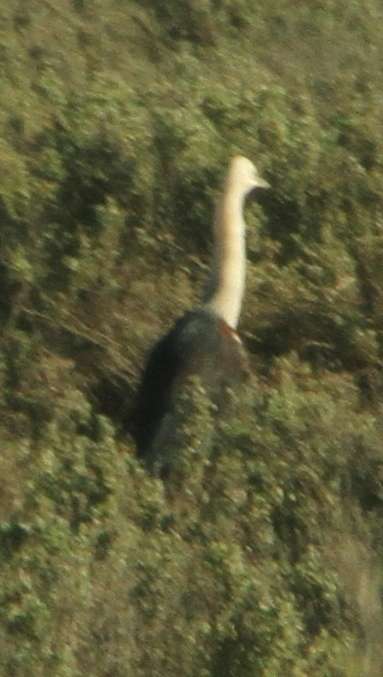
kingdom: Animalia
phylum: Chordata
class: Aves
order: Pelecaniformes
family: Ardeidae
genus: Ardea
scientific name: Ardea pacifica
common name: White-necked heron
